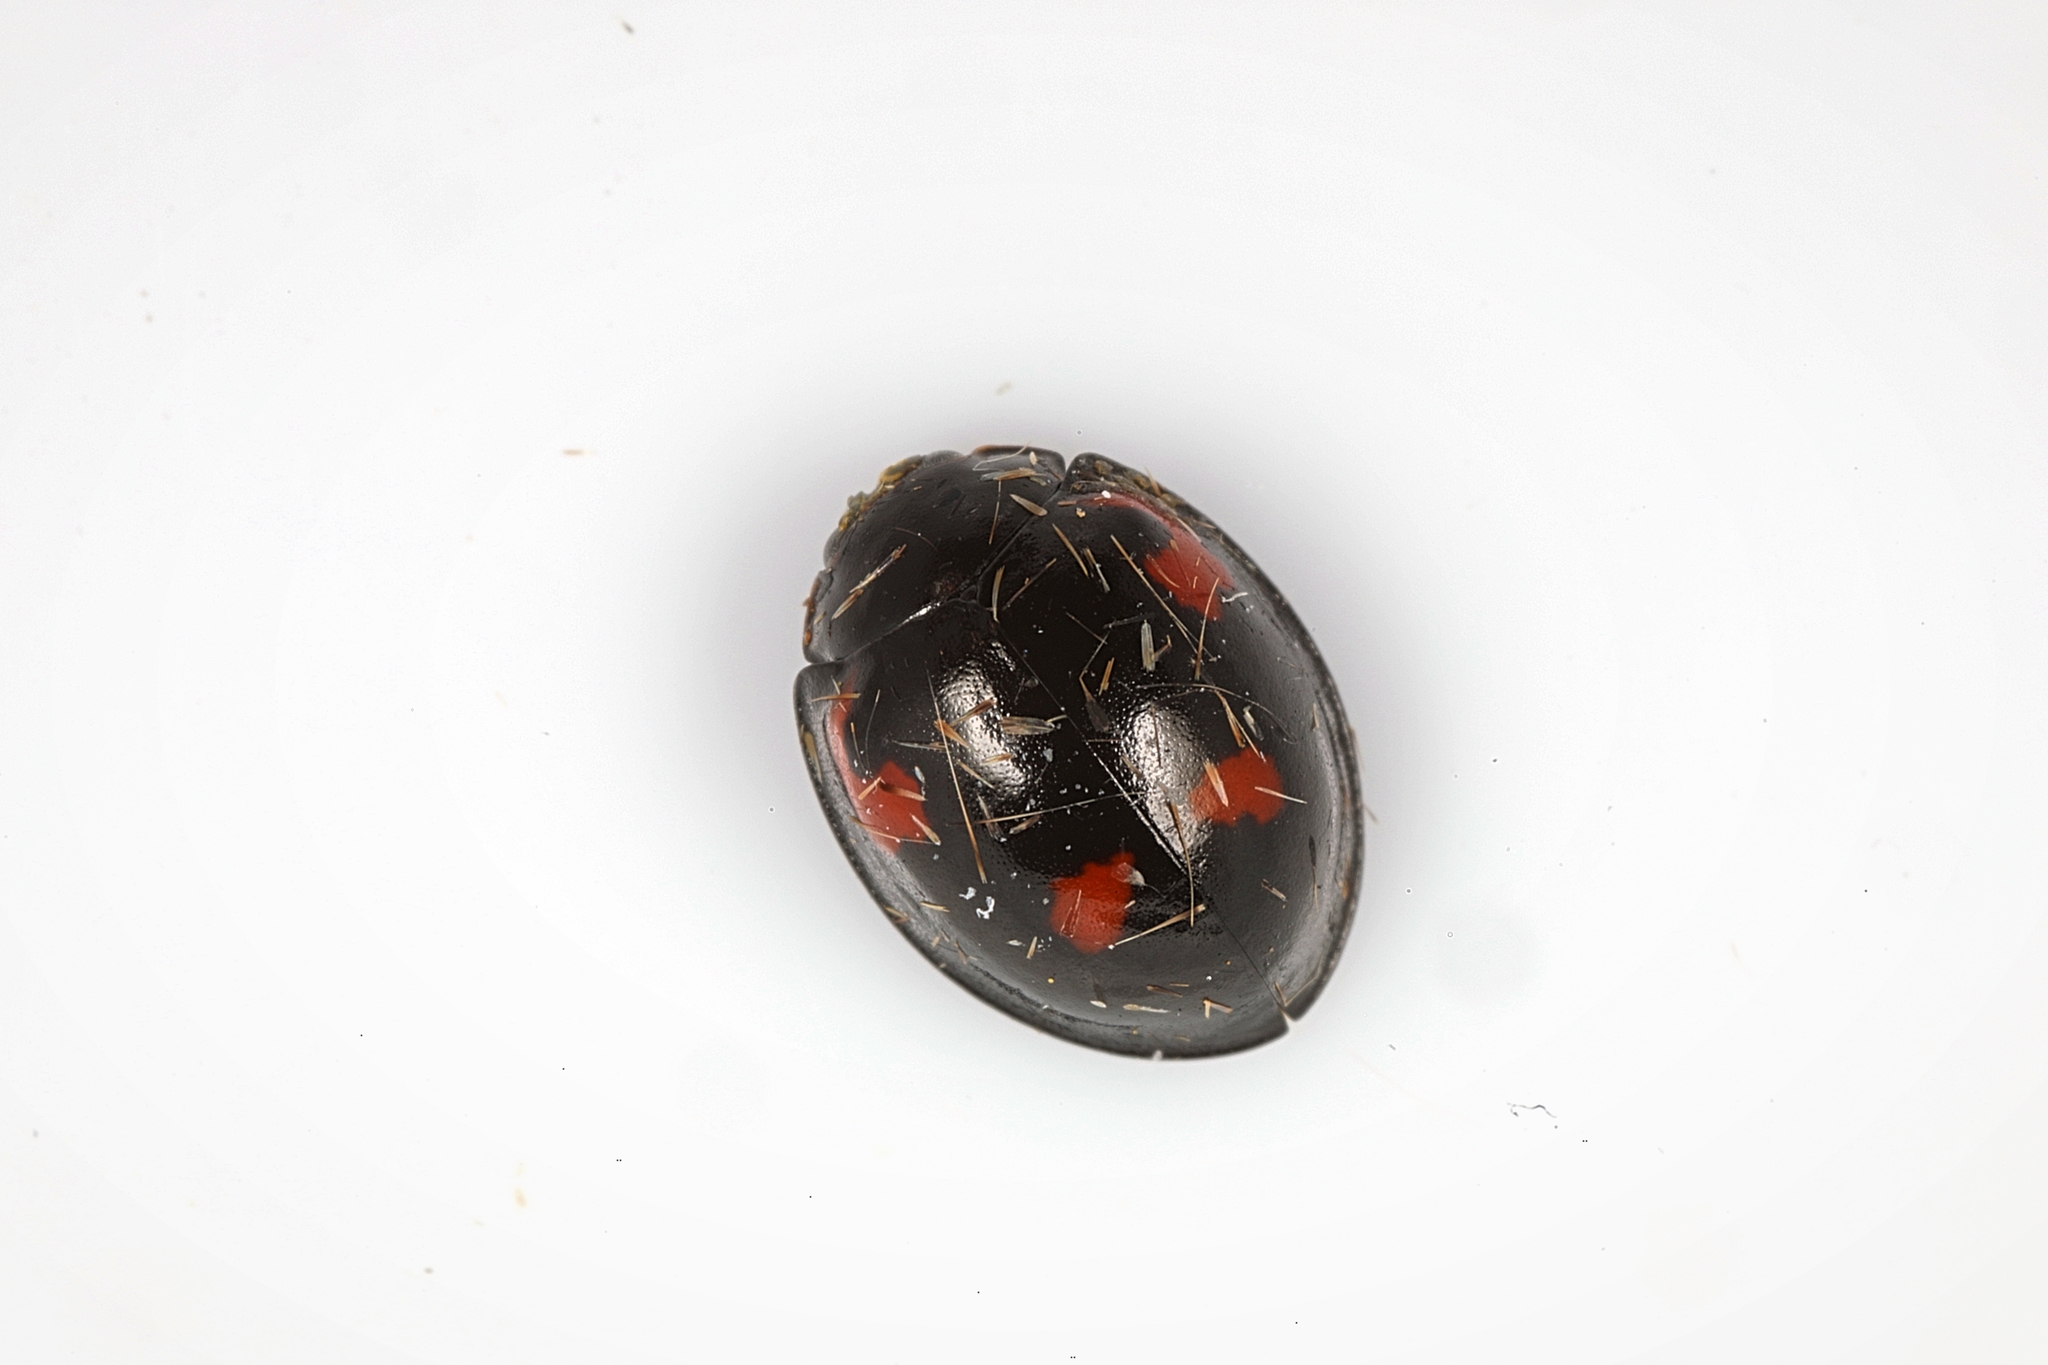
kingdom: Animalia
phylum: Arthropoda
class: Insecta
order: Coleoptera
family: Coccinellidae
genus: Brumus
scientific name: Brumus quadripustulatus
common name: Ladybird beetle
